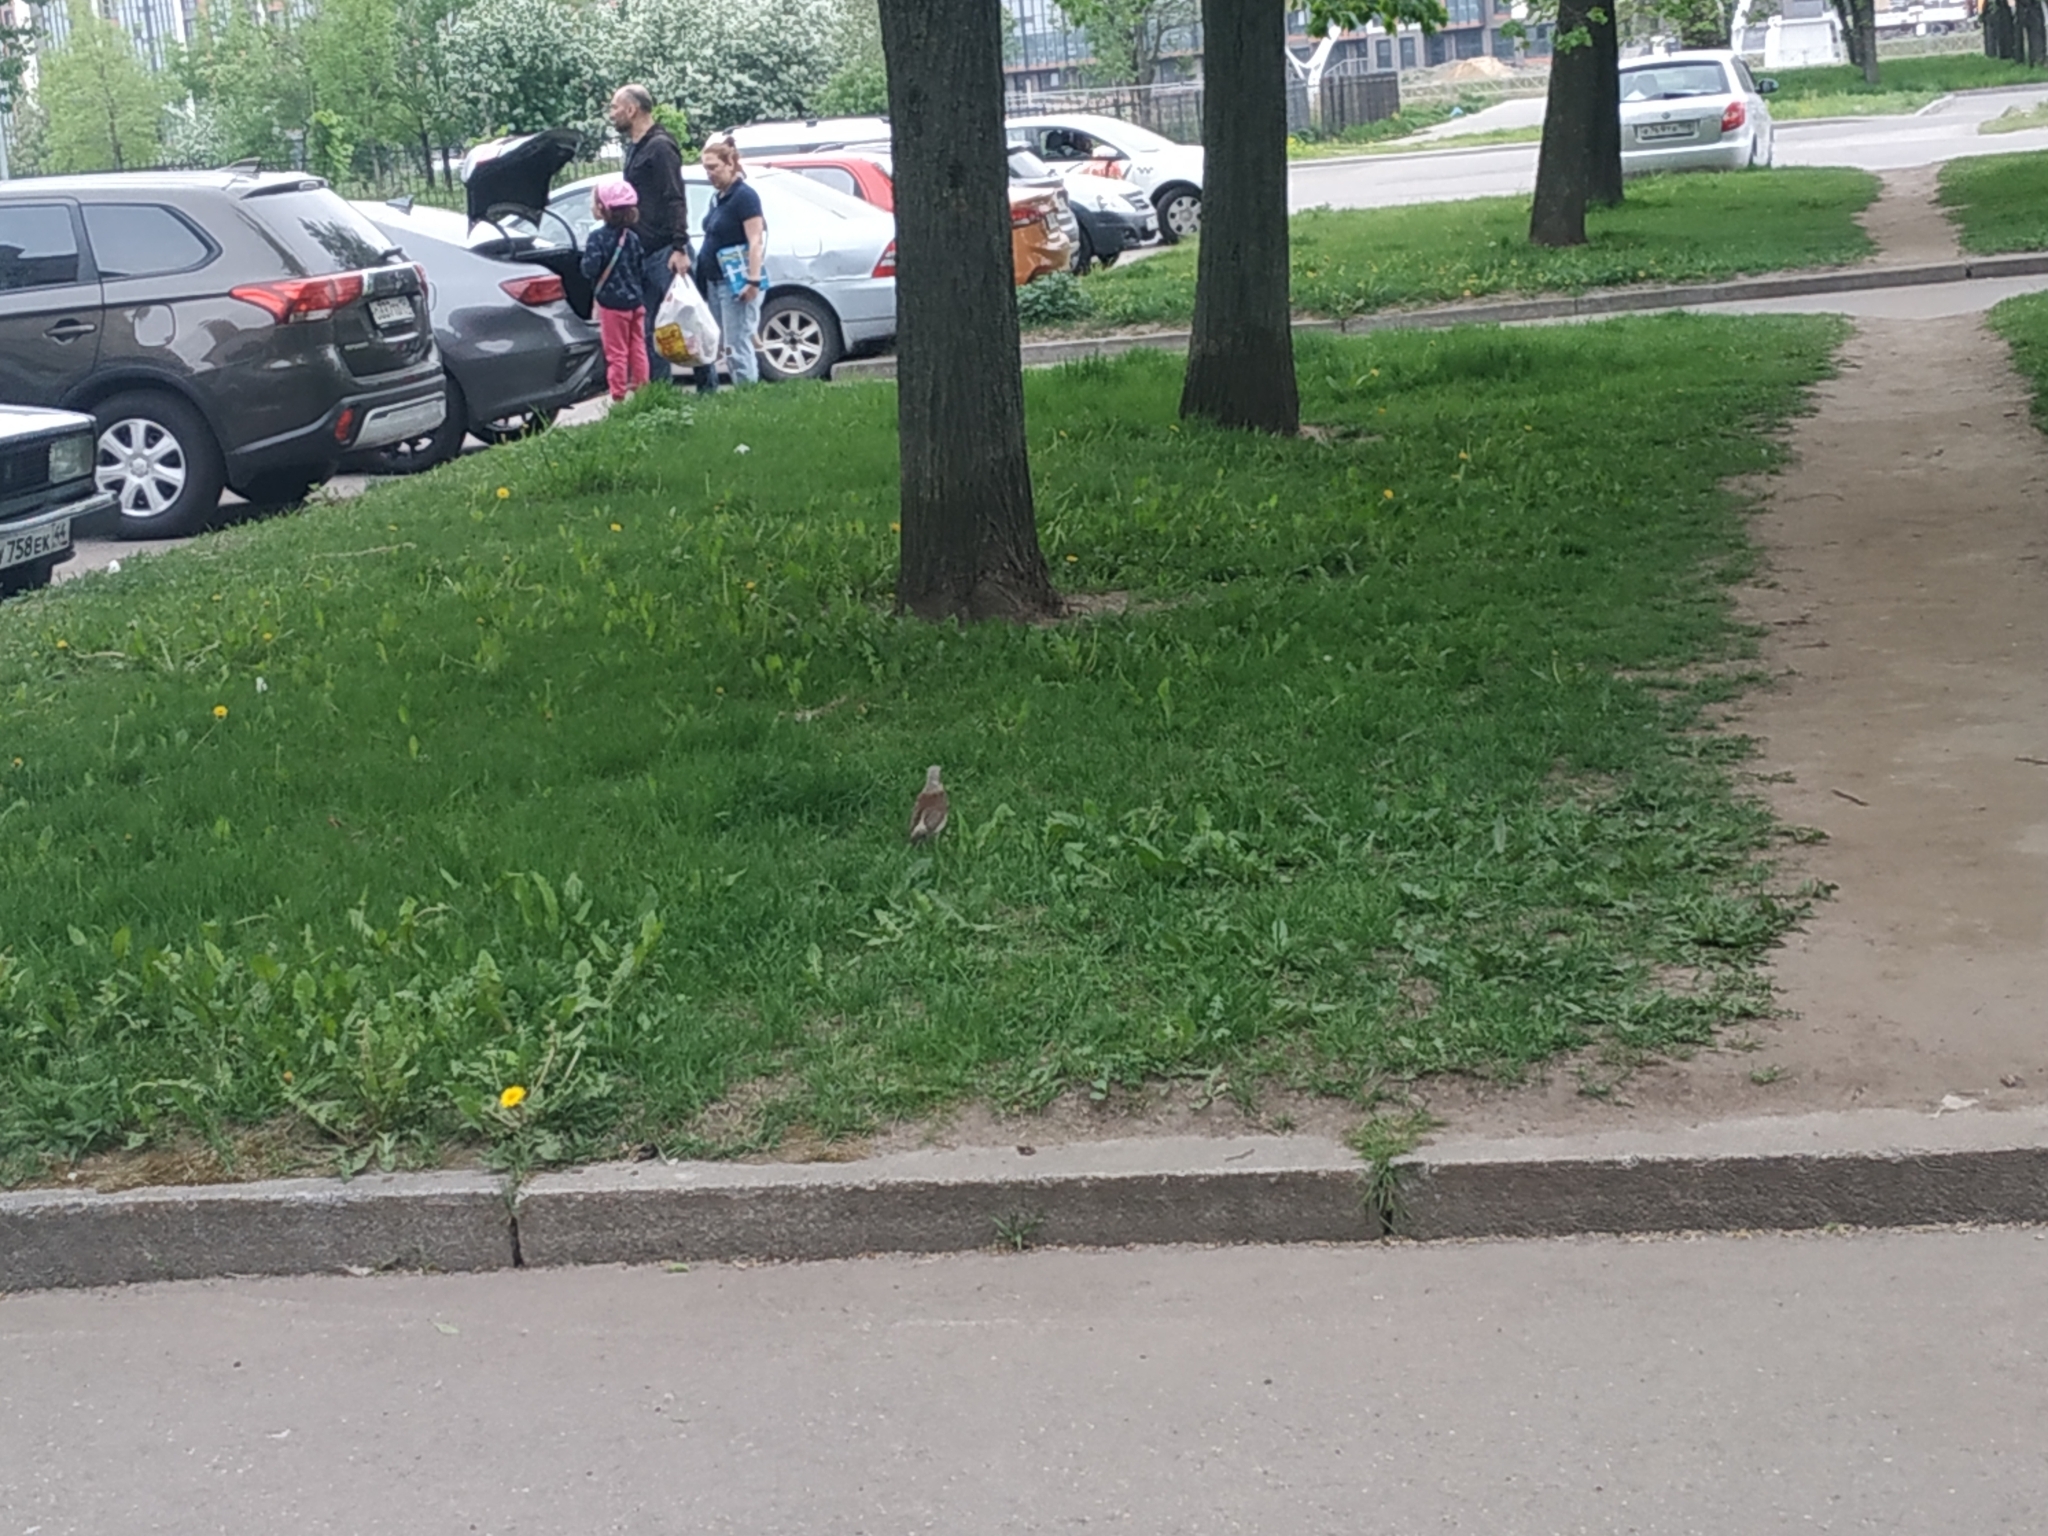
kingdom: Animalia
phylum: Chordata
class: Aves
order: Passeriformes
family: Turdidae
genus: Turdus
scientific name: Turdus pilaris
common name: Fieldfare
